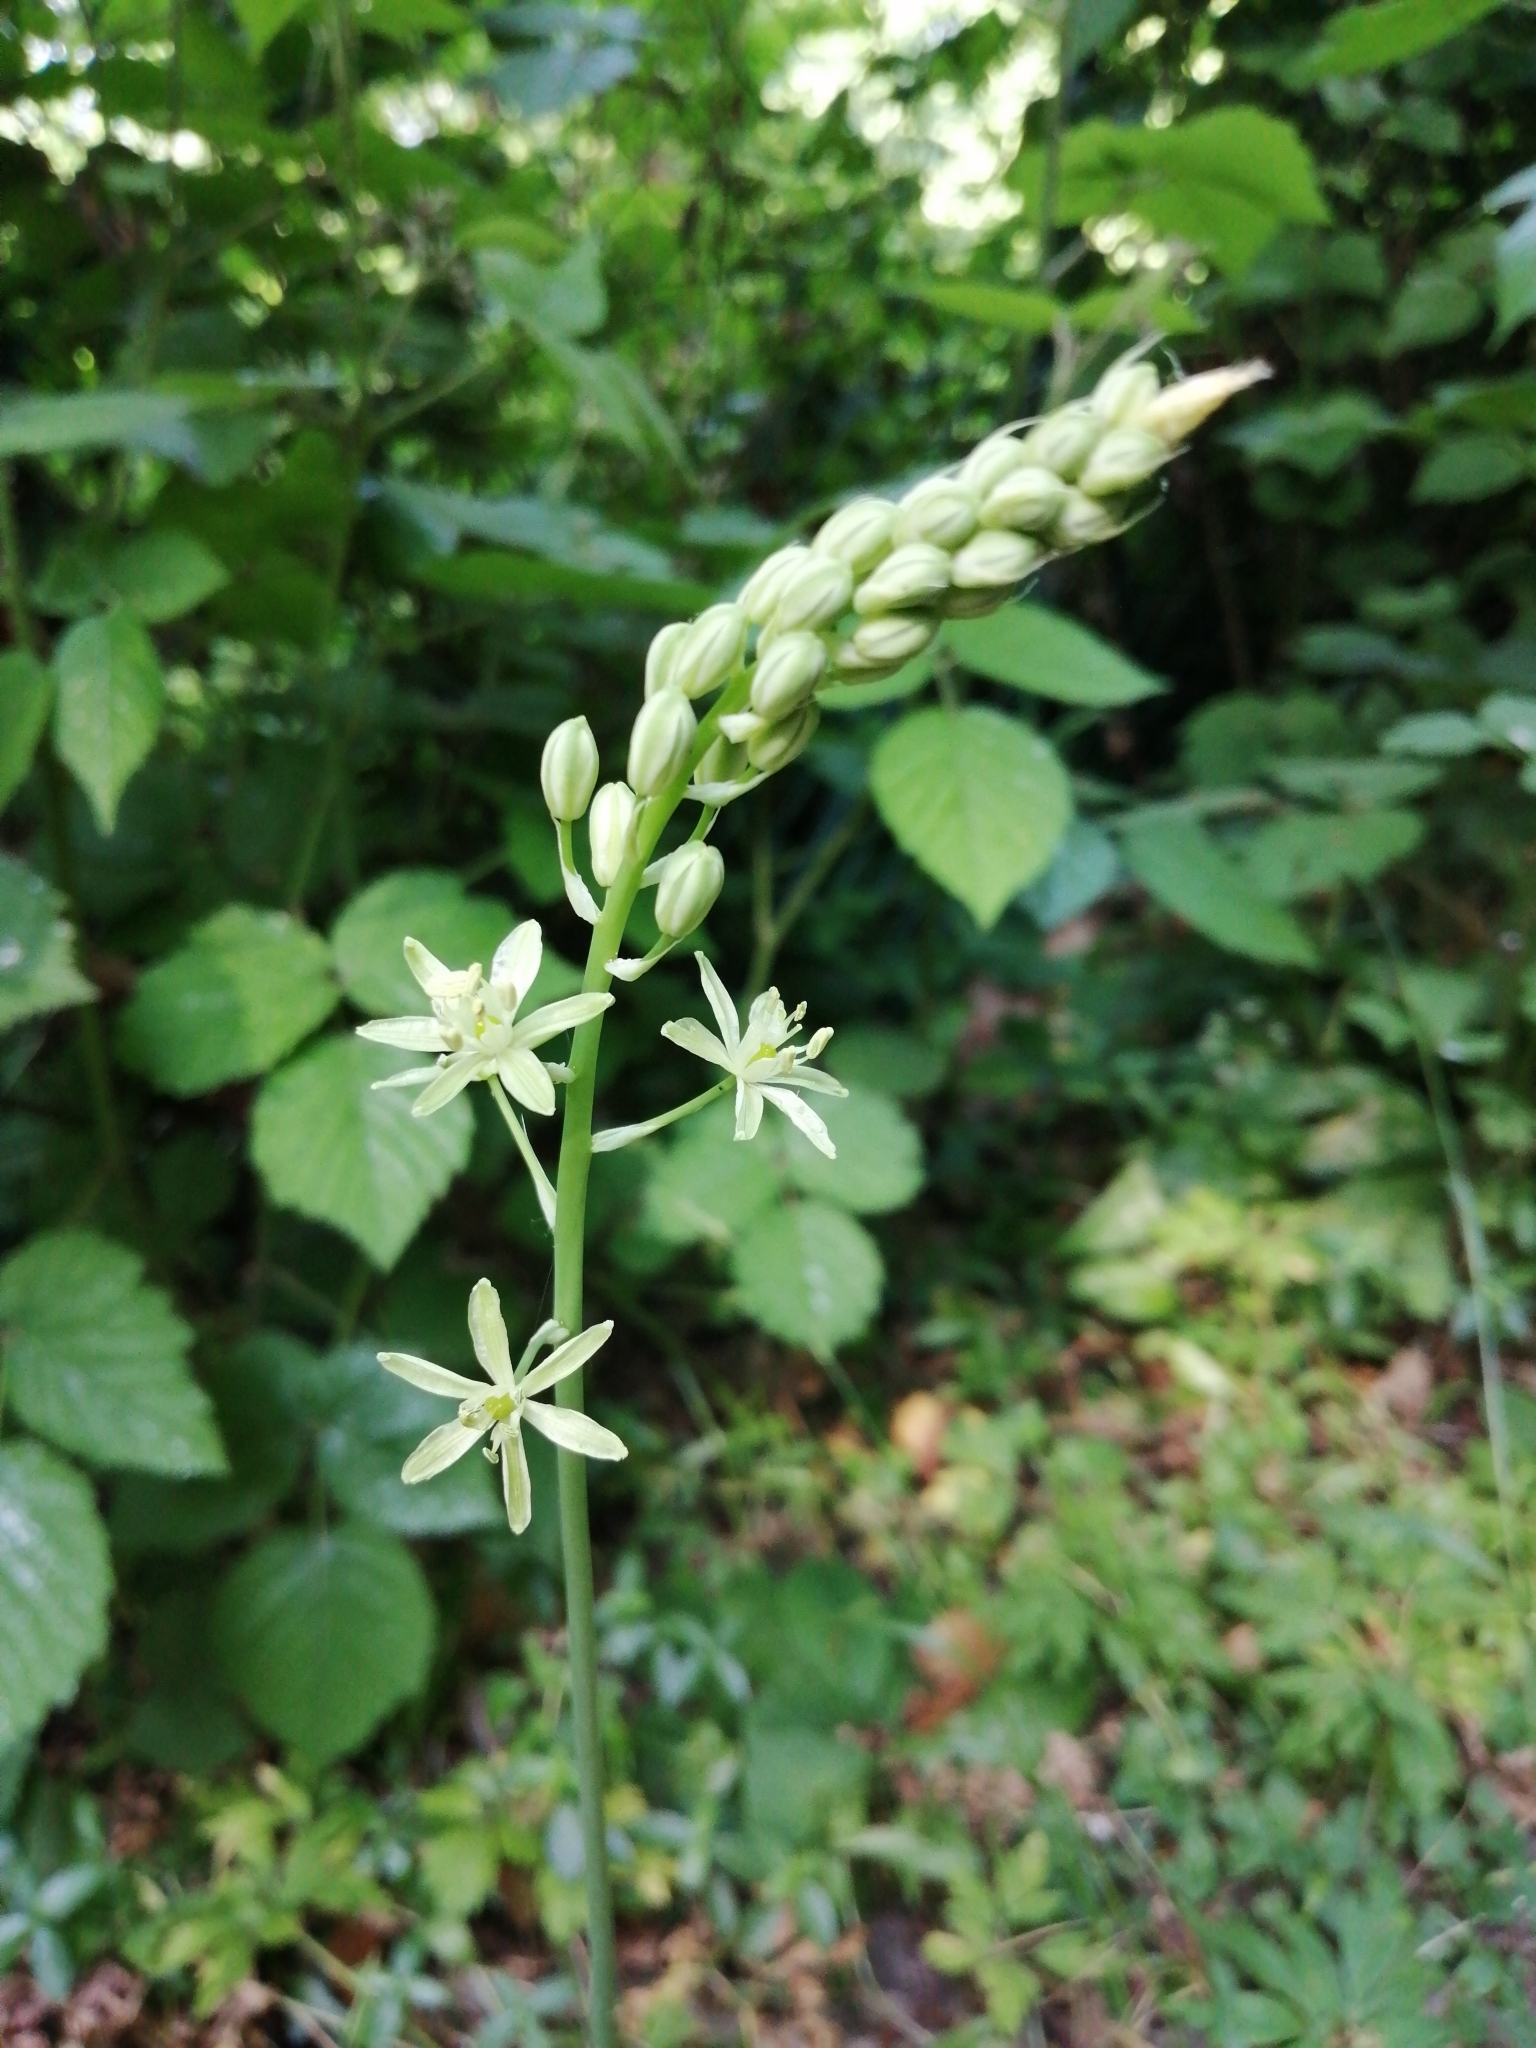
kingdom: Plantae
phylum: Tracheophyta
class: Liliopsida
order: Asparagales
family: Asparagaceae
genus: Ornithogalum
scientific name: Ornithogalum pyrenaicum
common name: Spiked star-of-bethlehem
